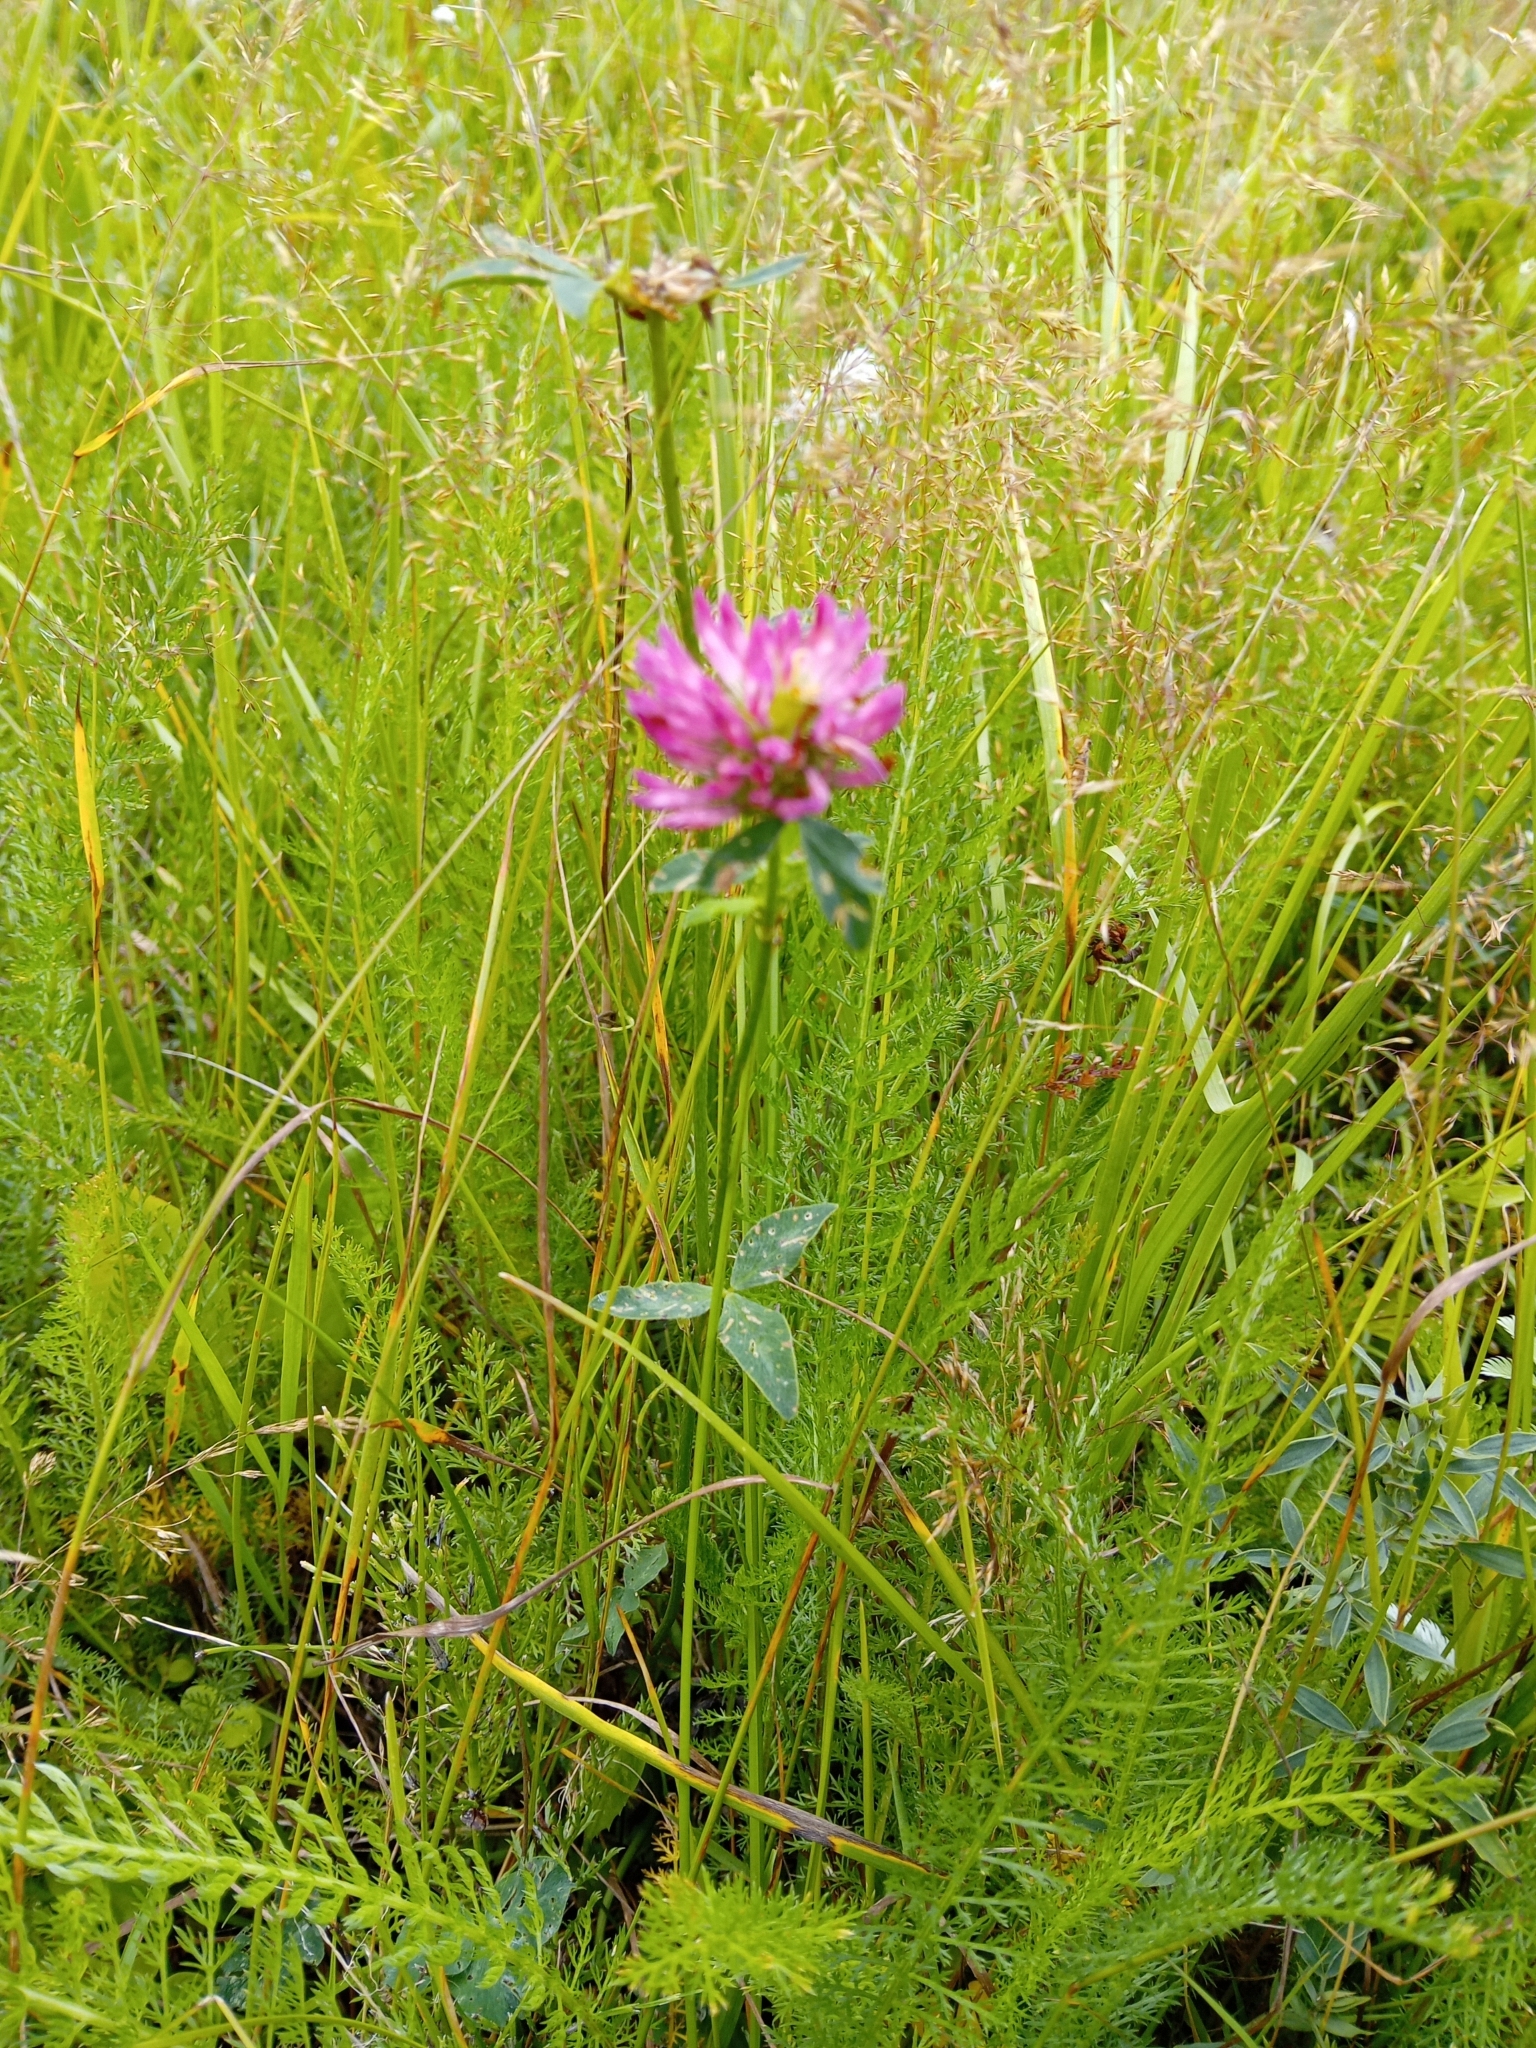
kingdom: Plantae
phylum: Tracheophyta
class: Magnoliopsida
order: Fabales
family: Fabaceae
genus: Trifolium
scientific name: Trifolium pratense
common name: Red clover
